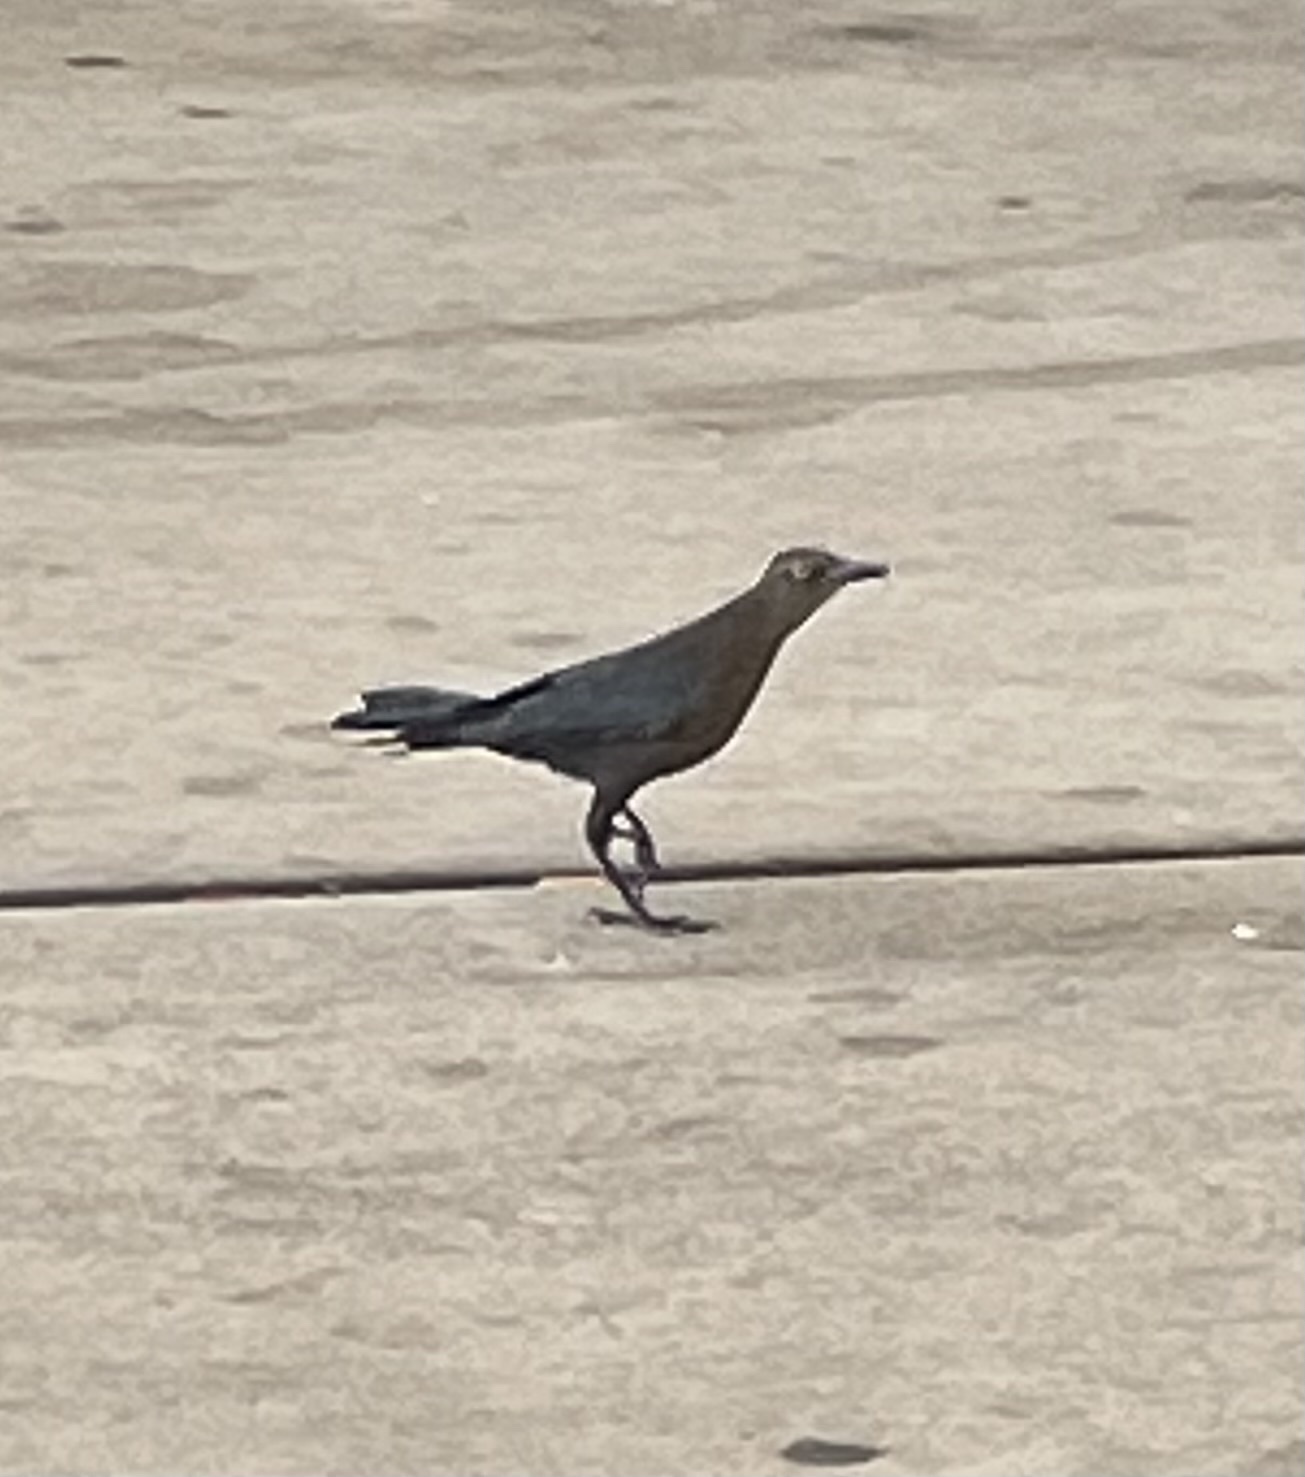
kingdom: Animalia
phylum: Chordata
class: Aves
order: Passeriformes
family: Icteridae
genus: Quiscalus
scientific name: Quiscalus mexicanus
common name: Great-tailed grackle
